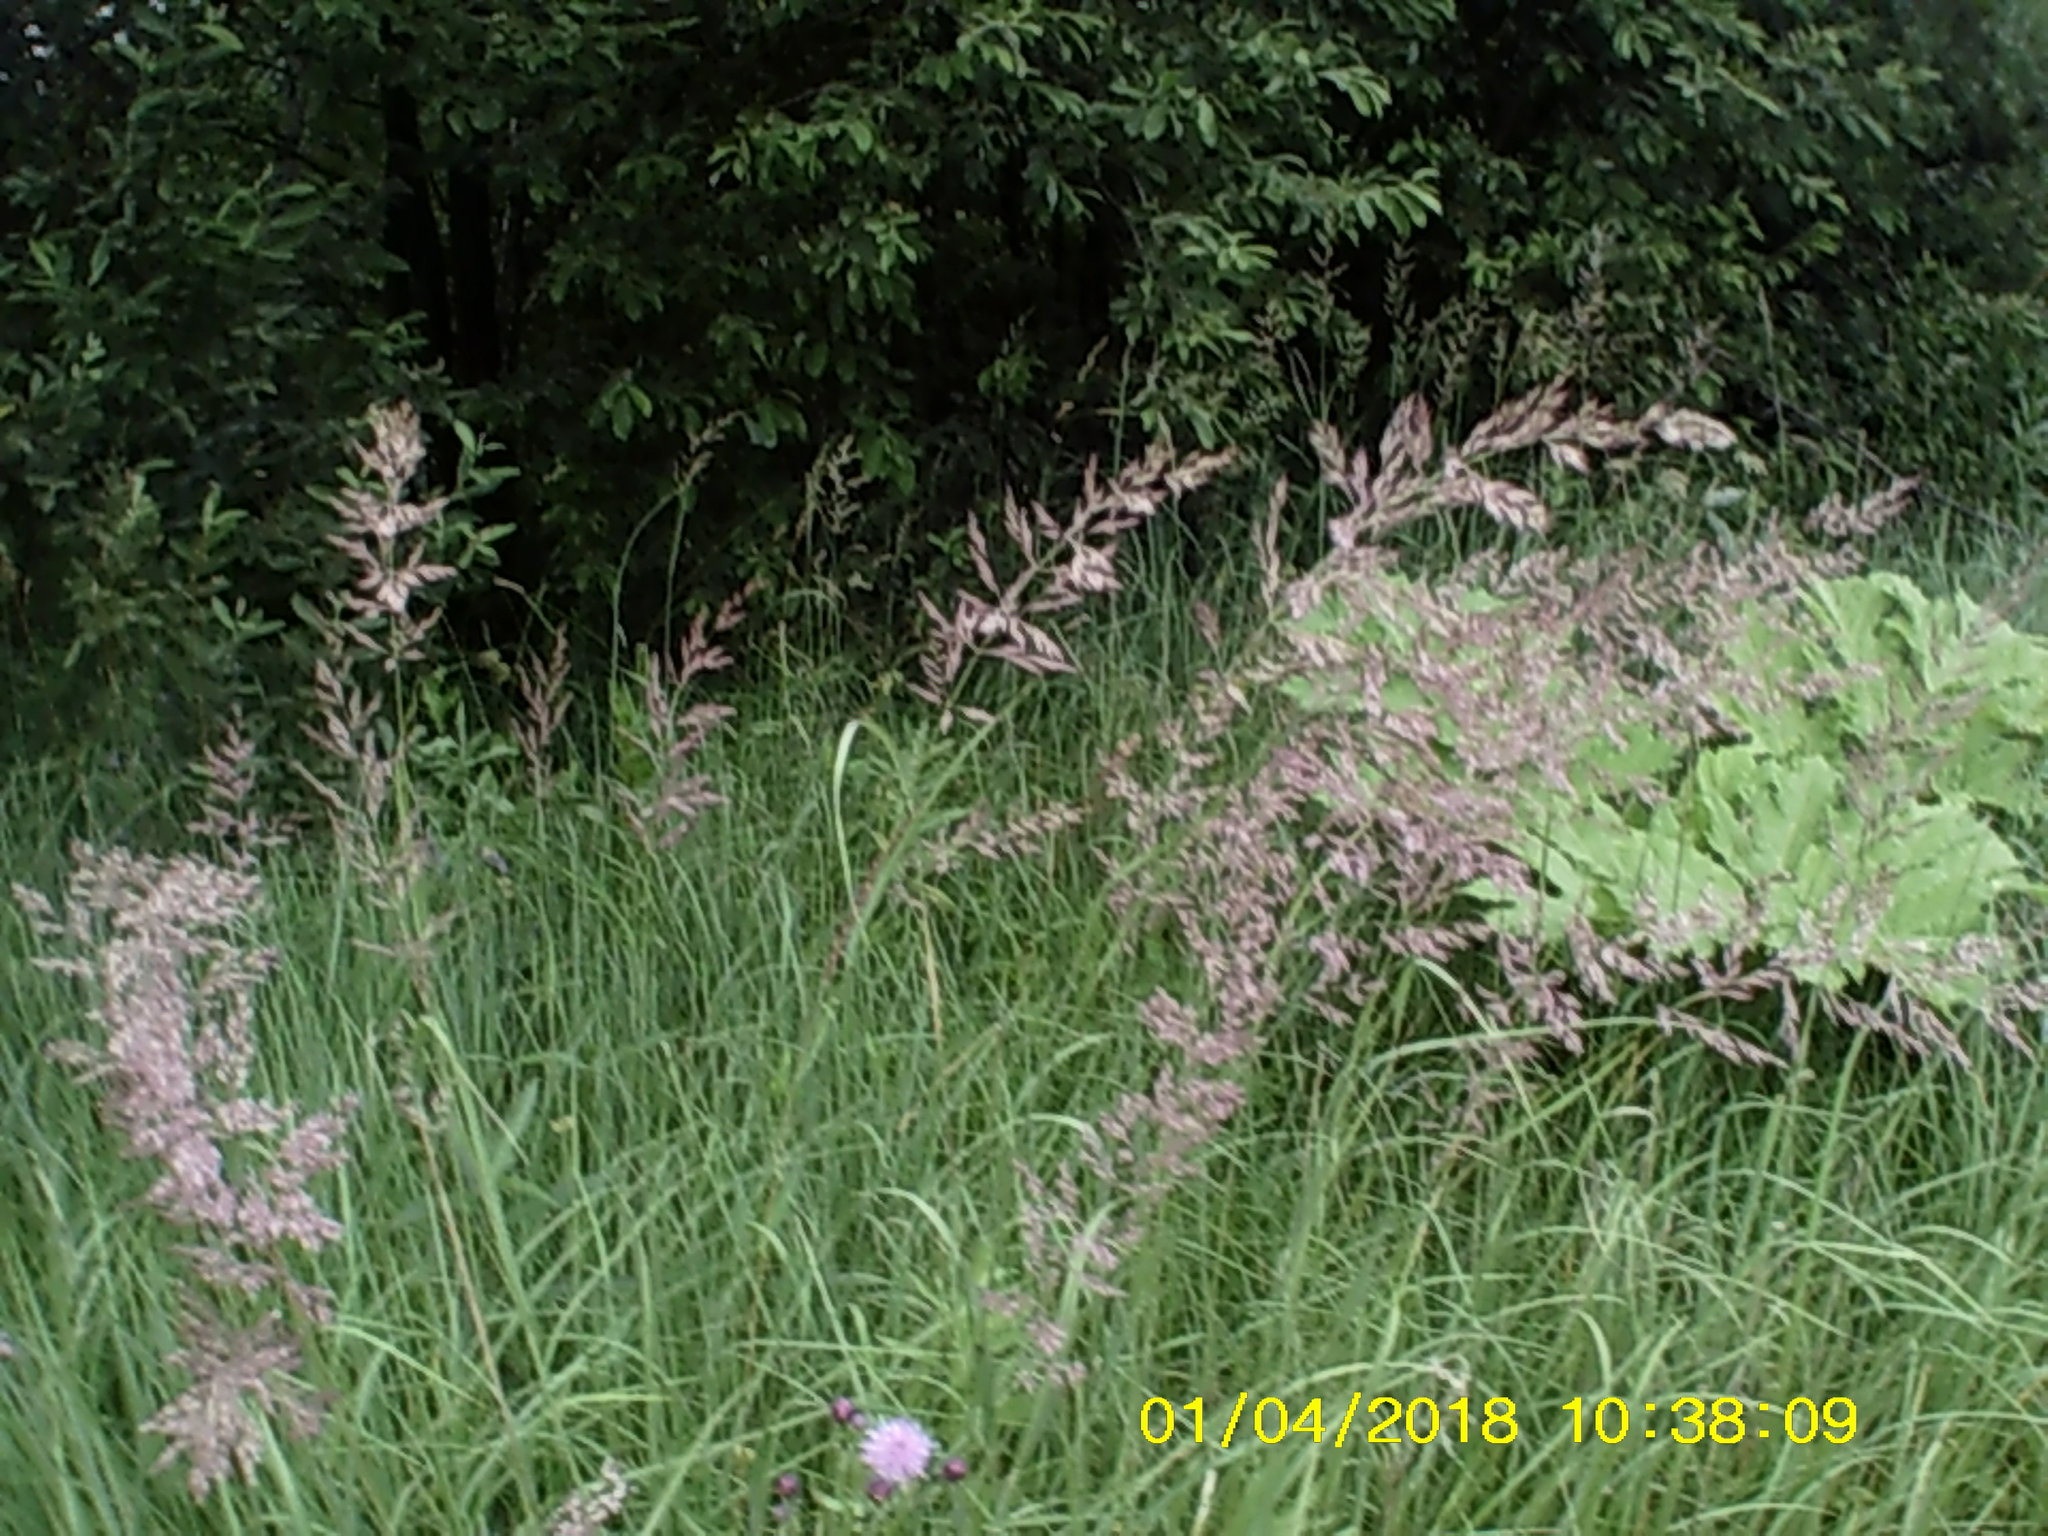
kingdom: Plantae
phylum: Tracheophyta
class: Liliopsida
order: Poales
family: Poaceae
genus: Calamagrostis
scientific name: Calamagrostis epigejos
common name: Wood small-reed
